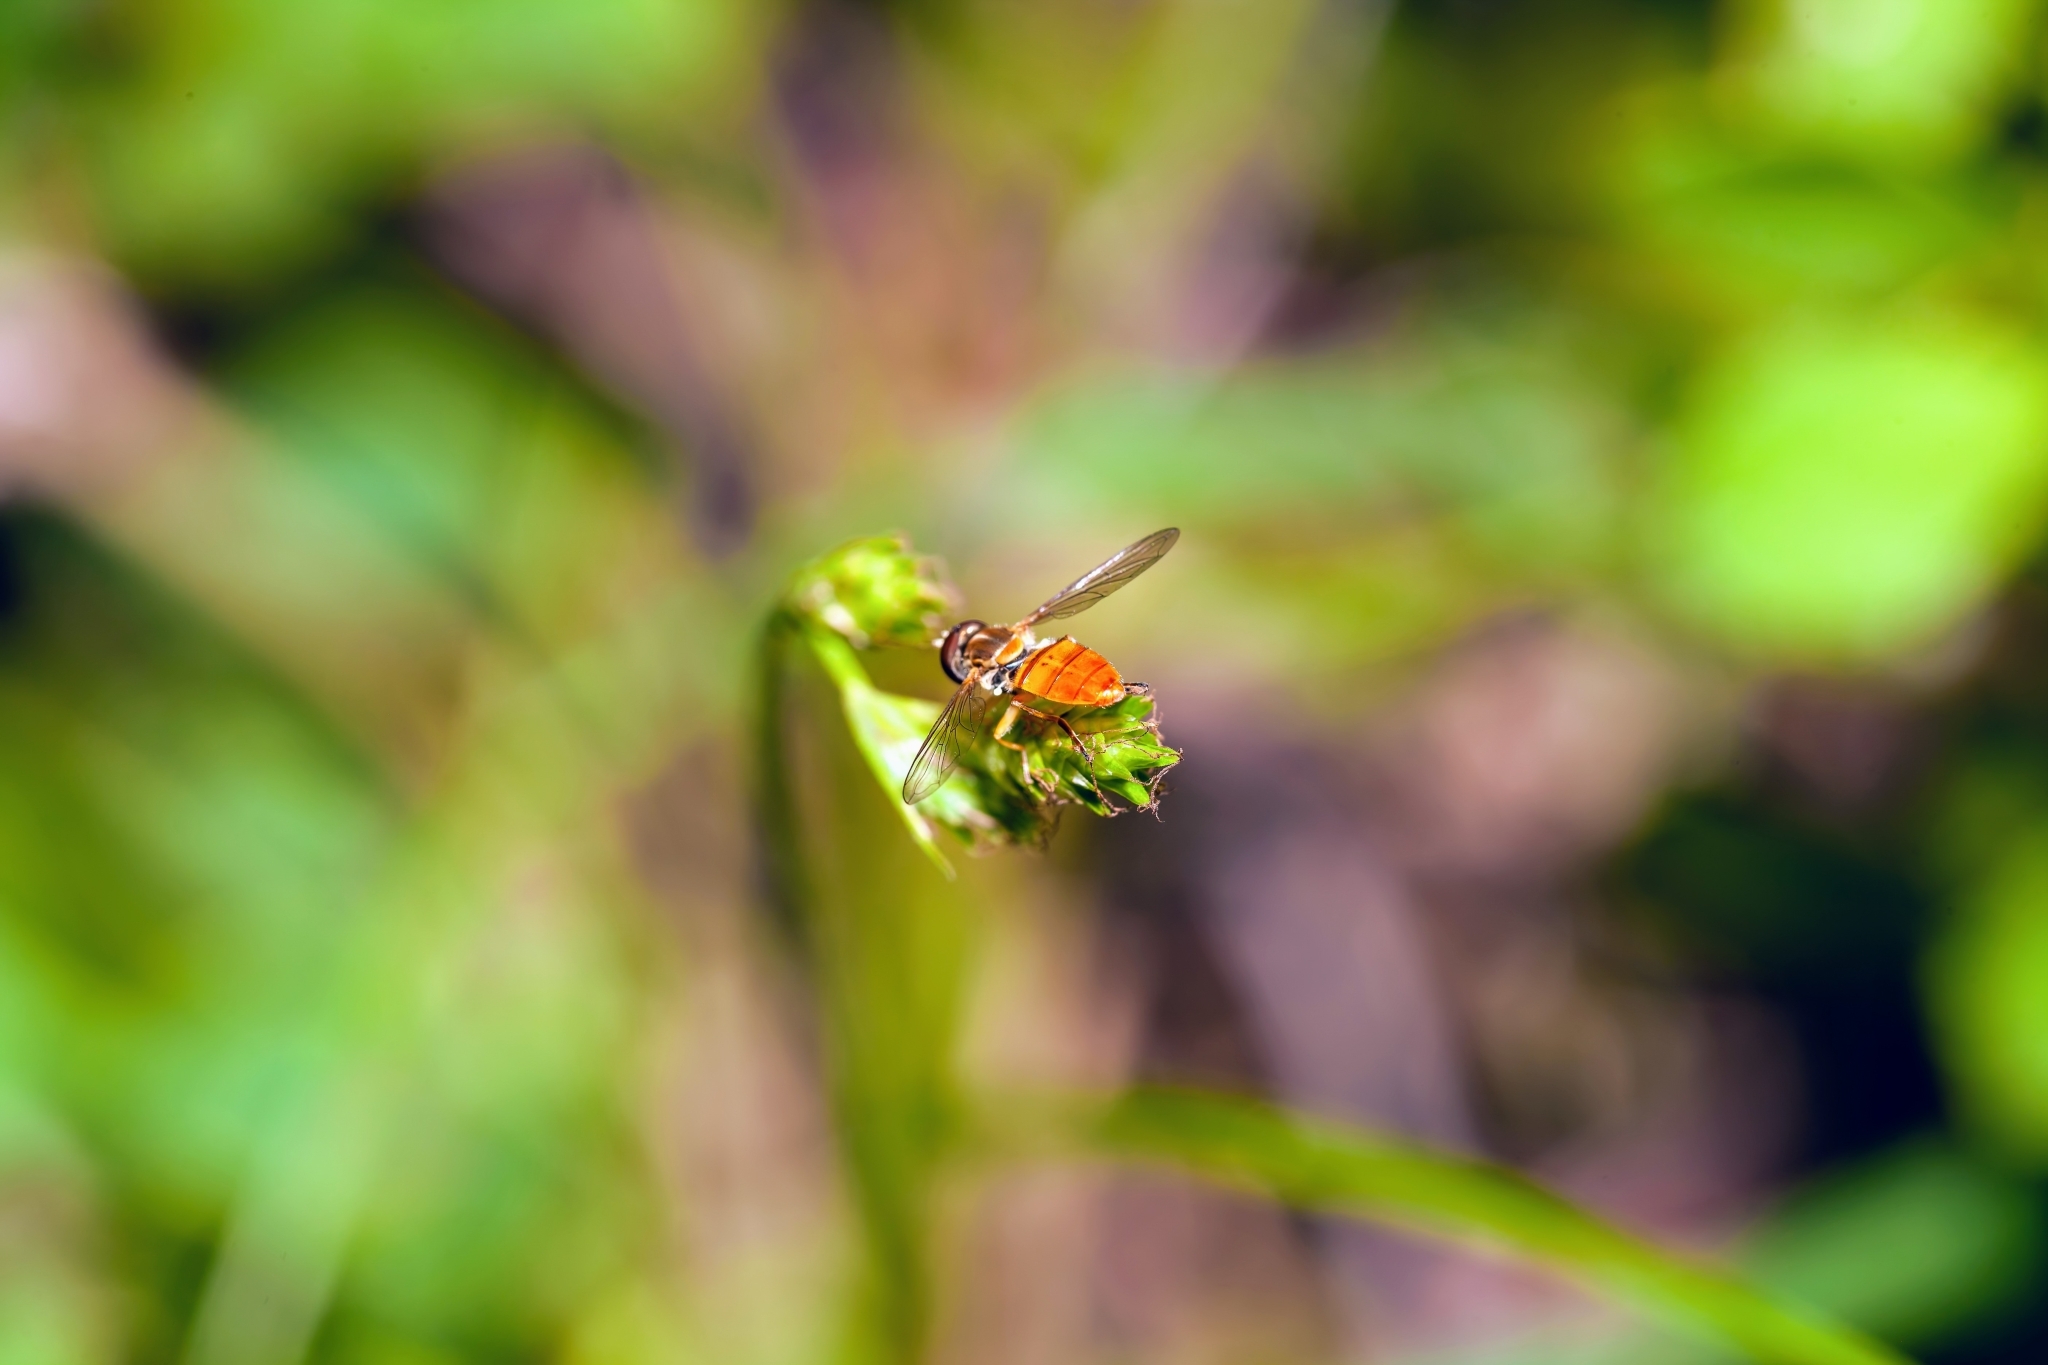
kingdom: Animalia
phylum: Arthropoda
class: Insecta
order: Diptera
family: Syrphidae
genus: Toxomerus
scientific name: Toxomerus floralis
